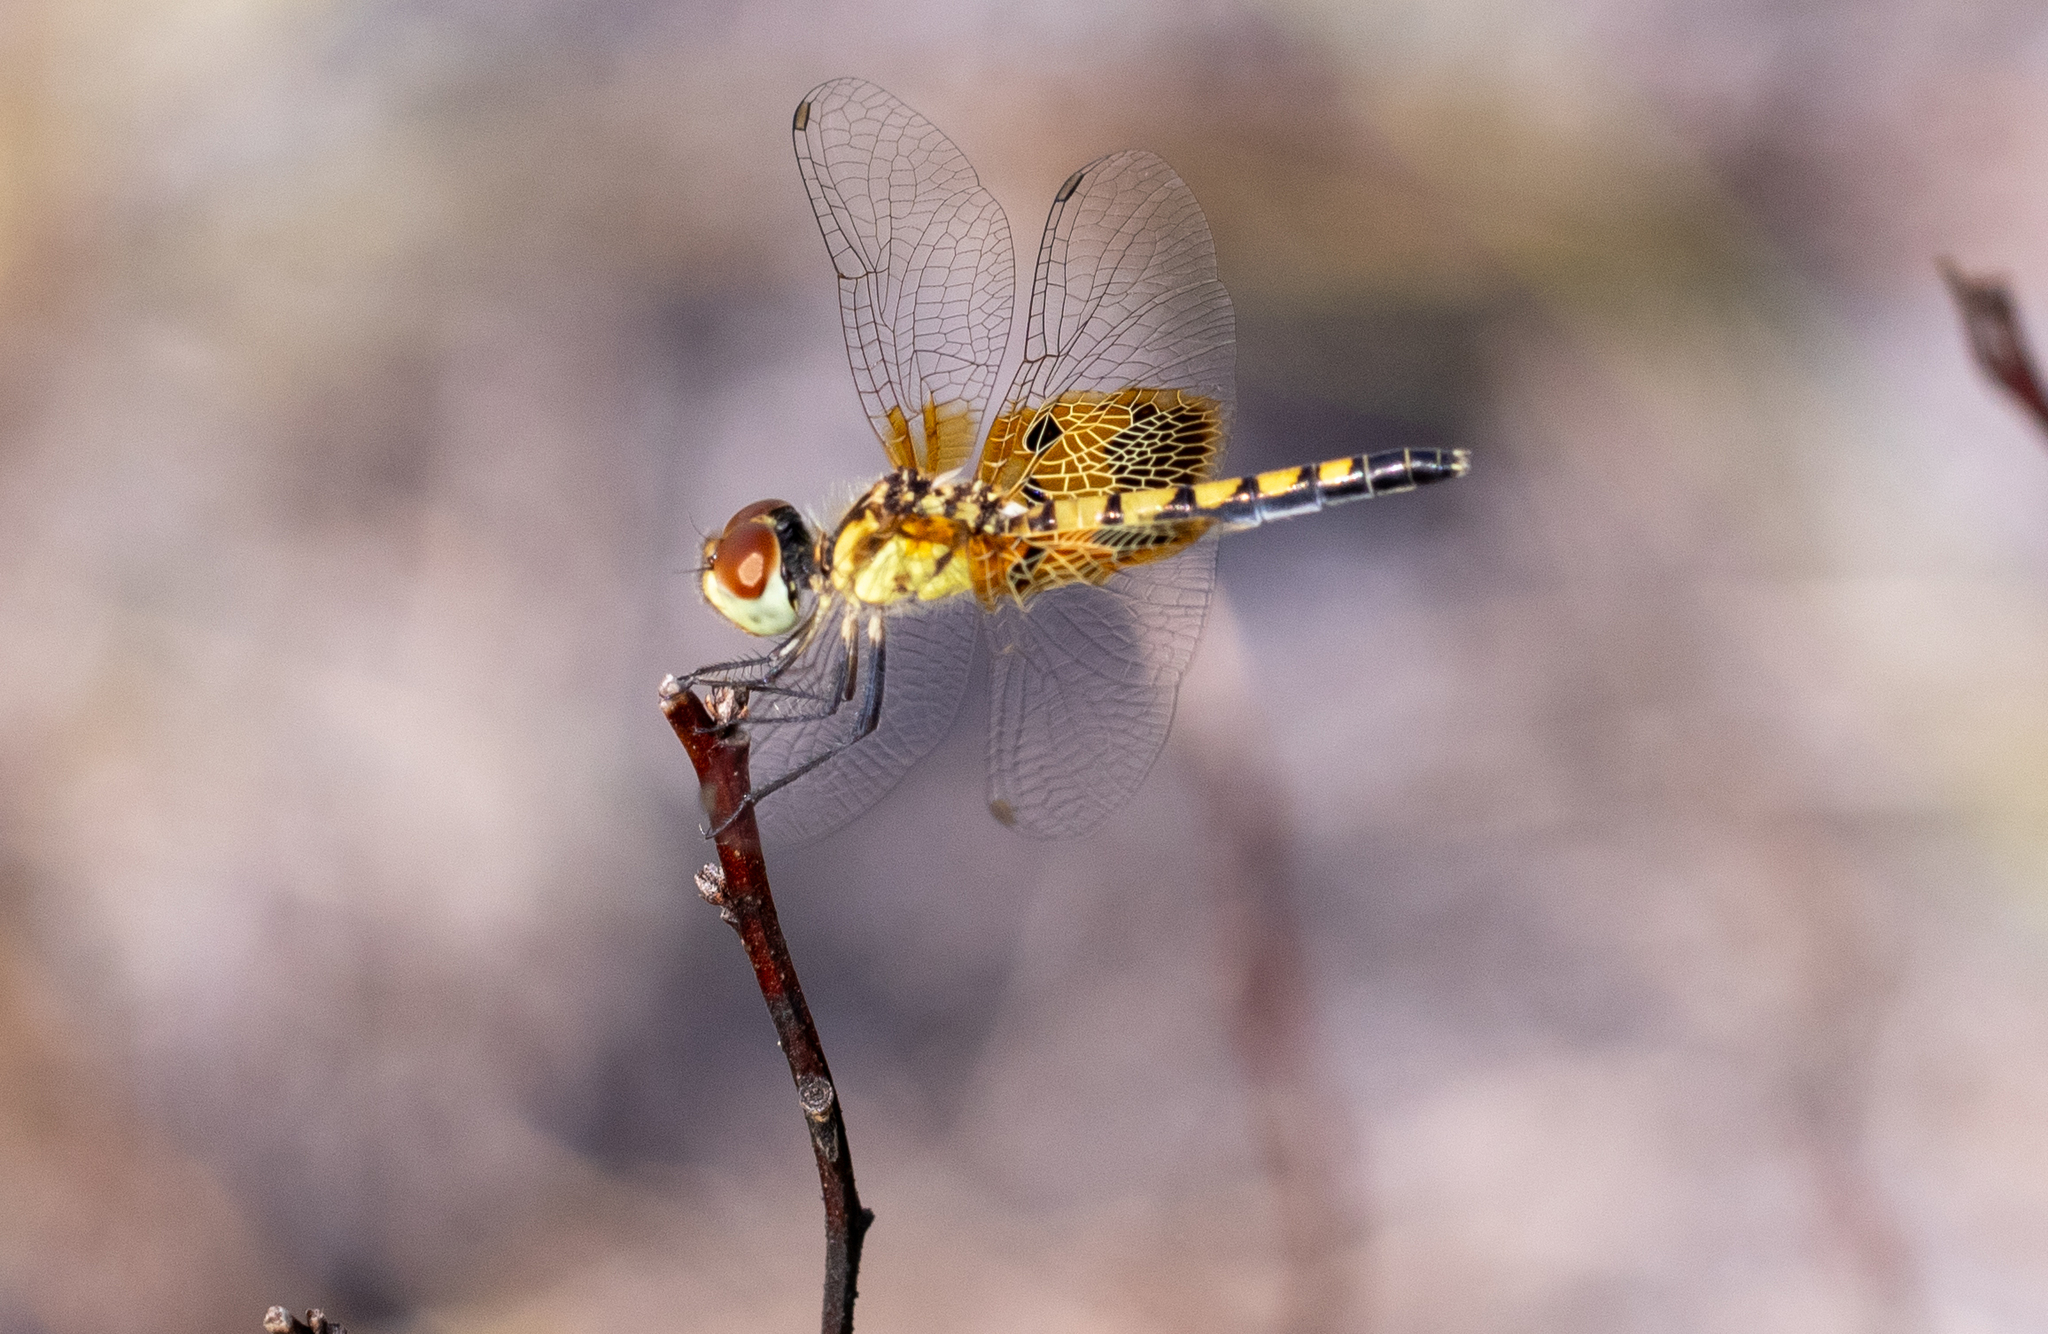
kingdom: Animalia
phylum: Arthropoda
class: Insecta
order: Odonata
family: Libellulidae
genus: Celithemis
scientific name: Celithemis amanda
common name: Amanda's pennant
